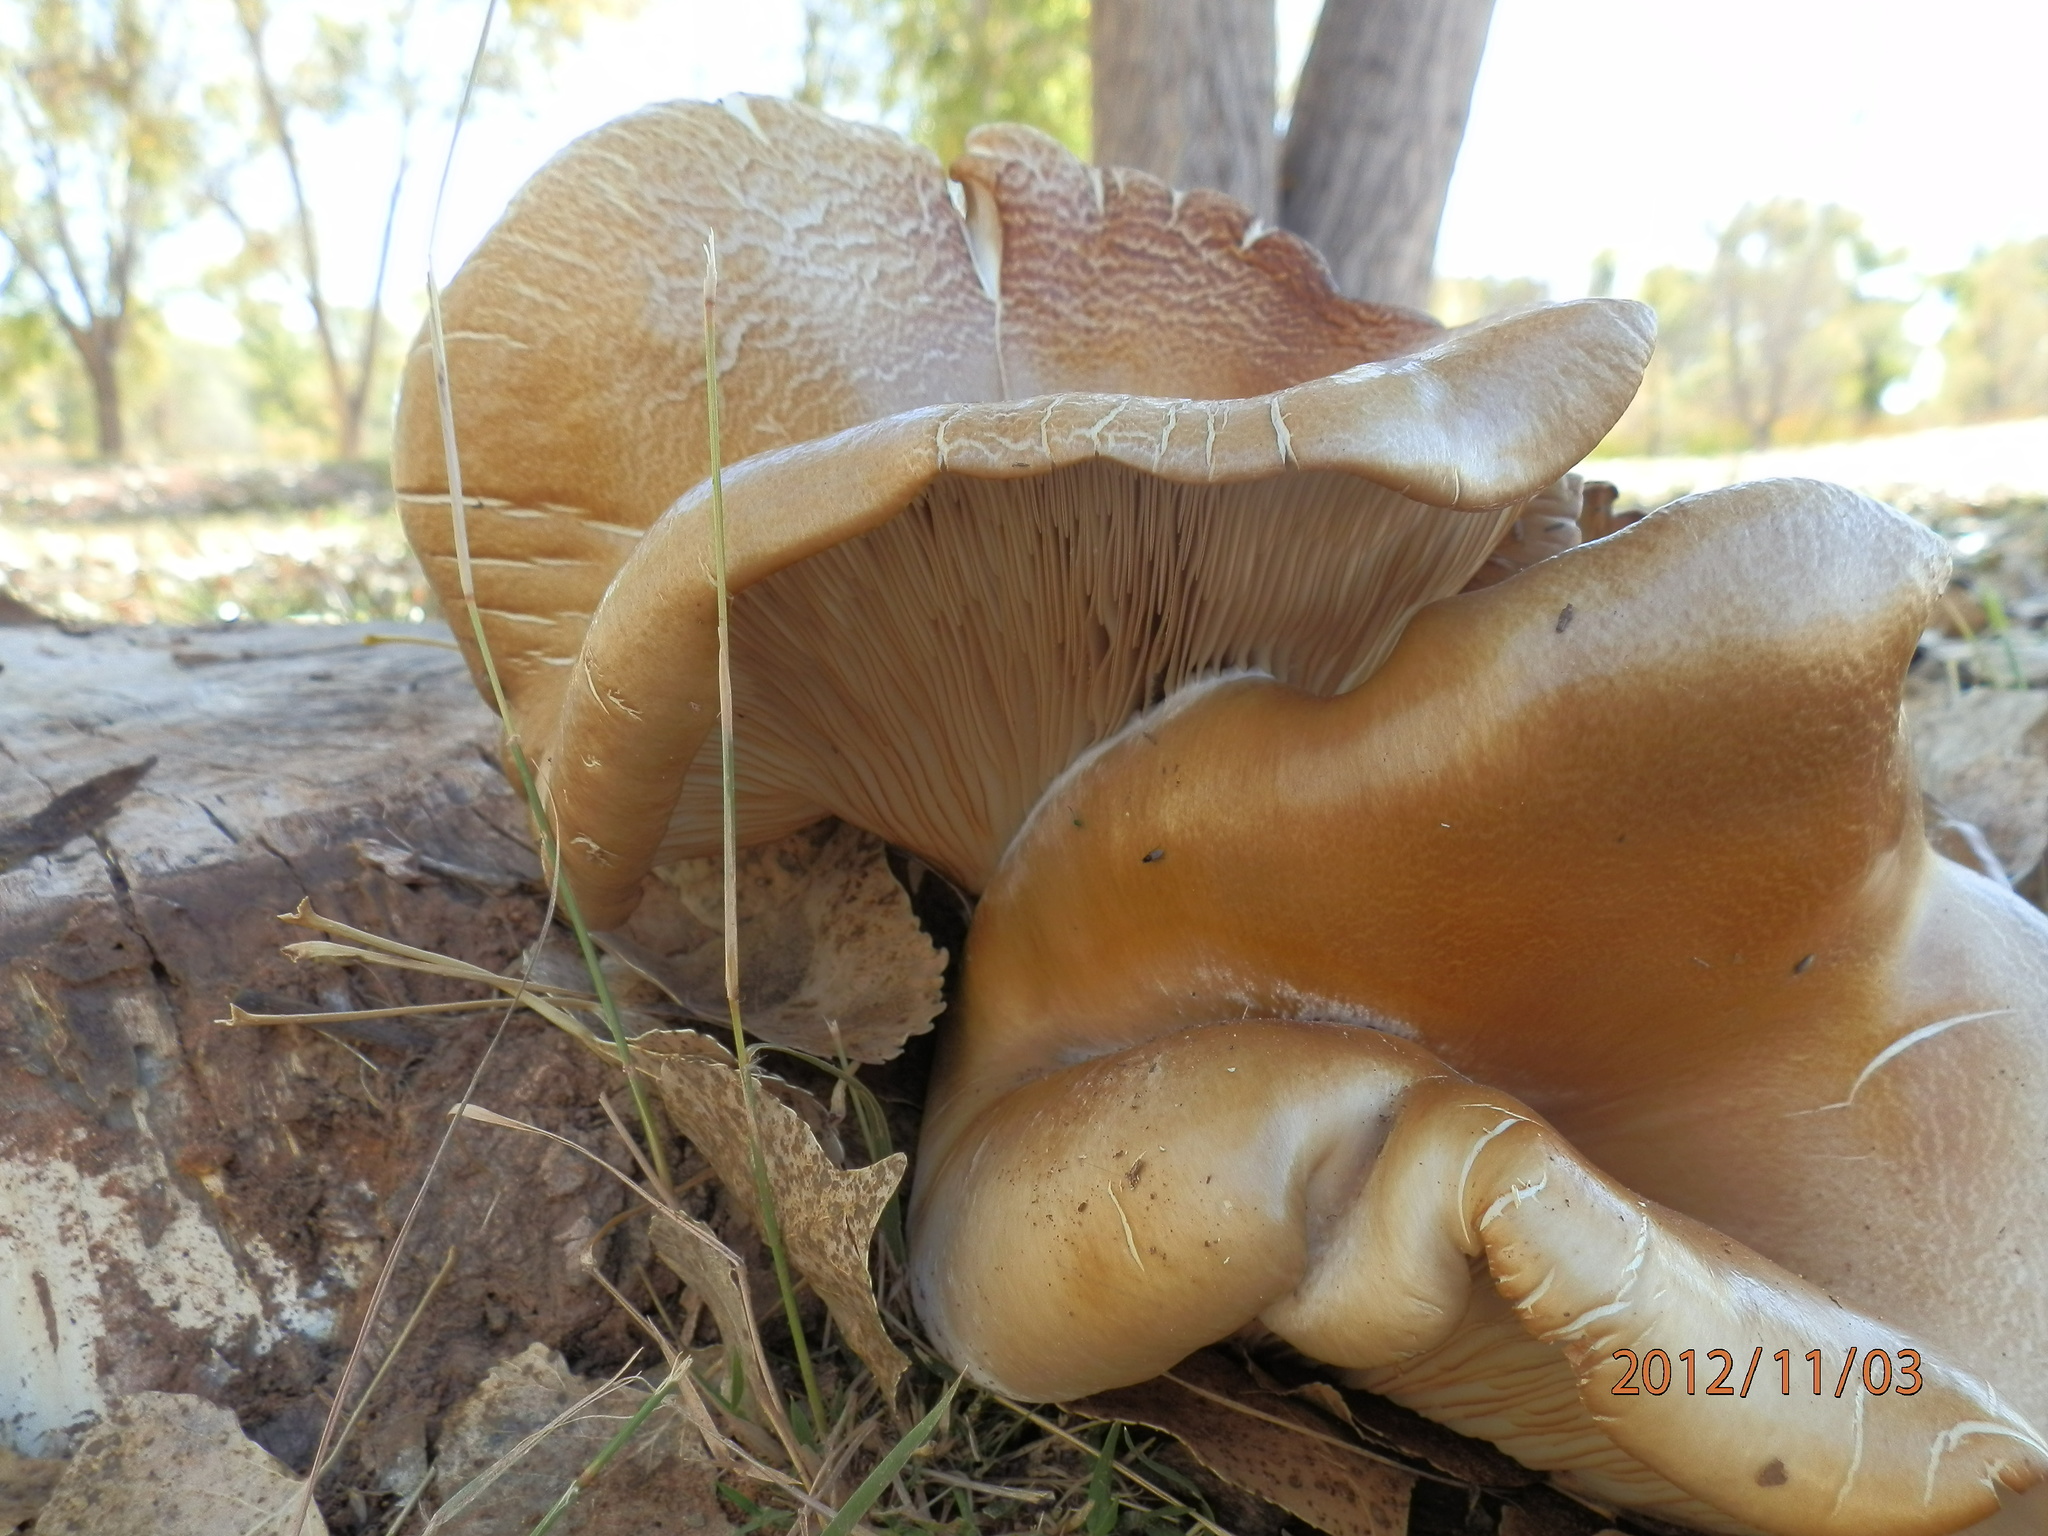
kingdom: Fungi
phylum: Basidiomycota
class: Agaricomycetes
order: Agaricales
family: Pleurotaceae
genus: Pleurotus
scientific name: Pleurotus ostreatus
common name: Oyster mushroom
